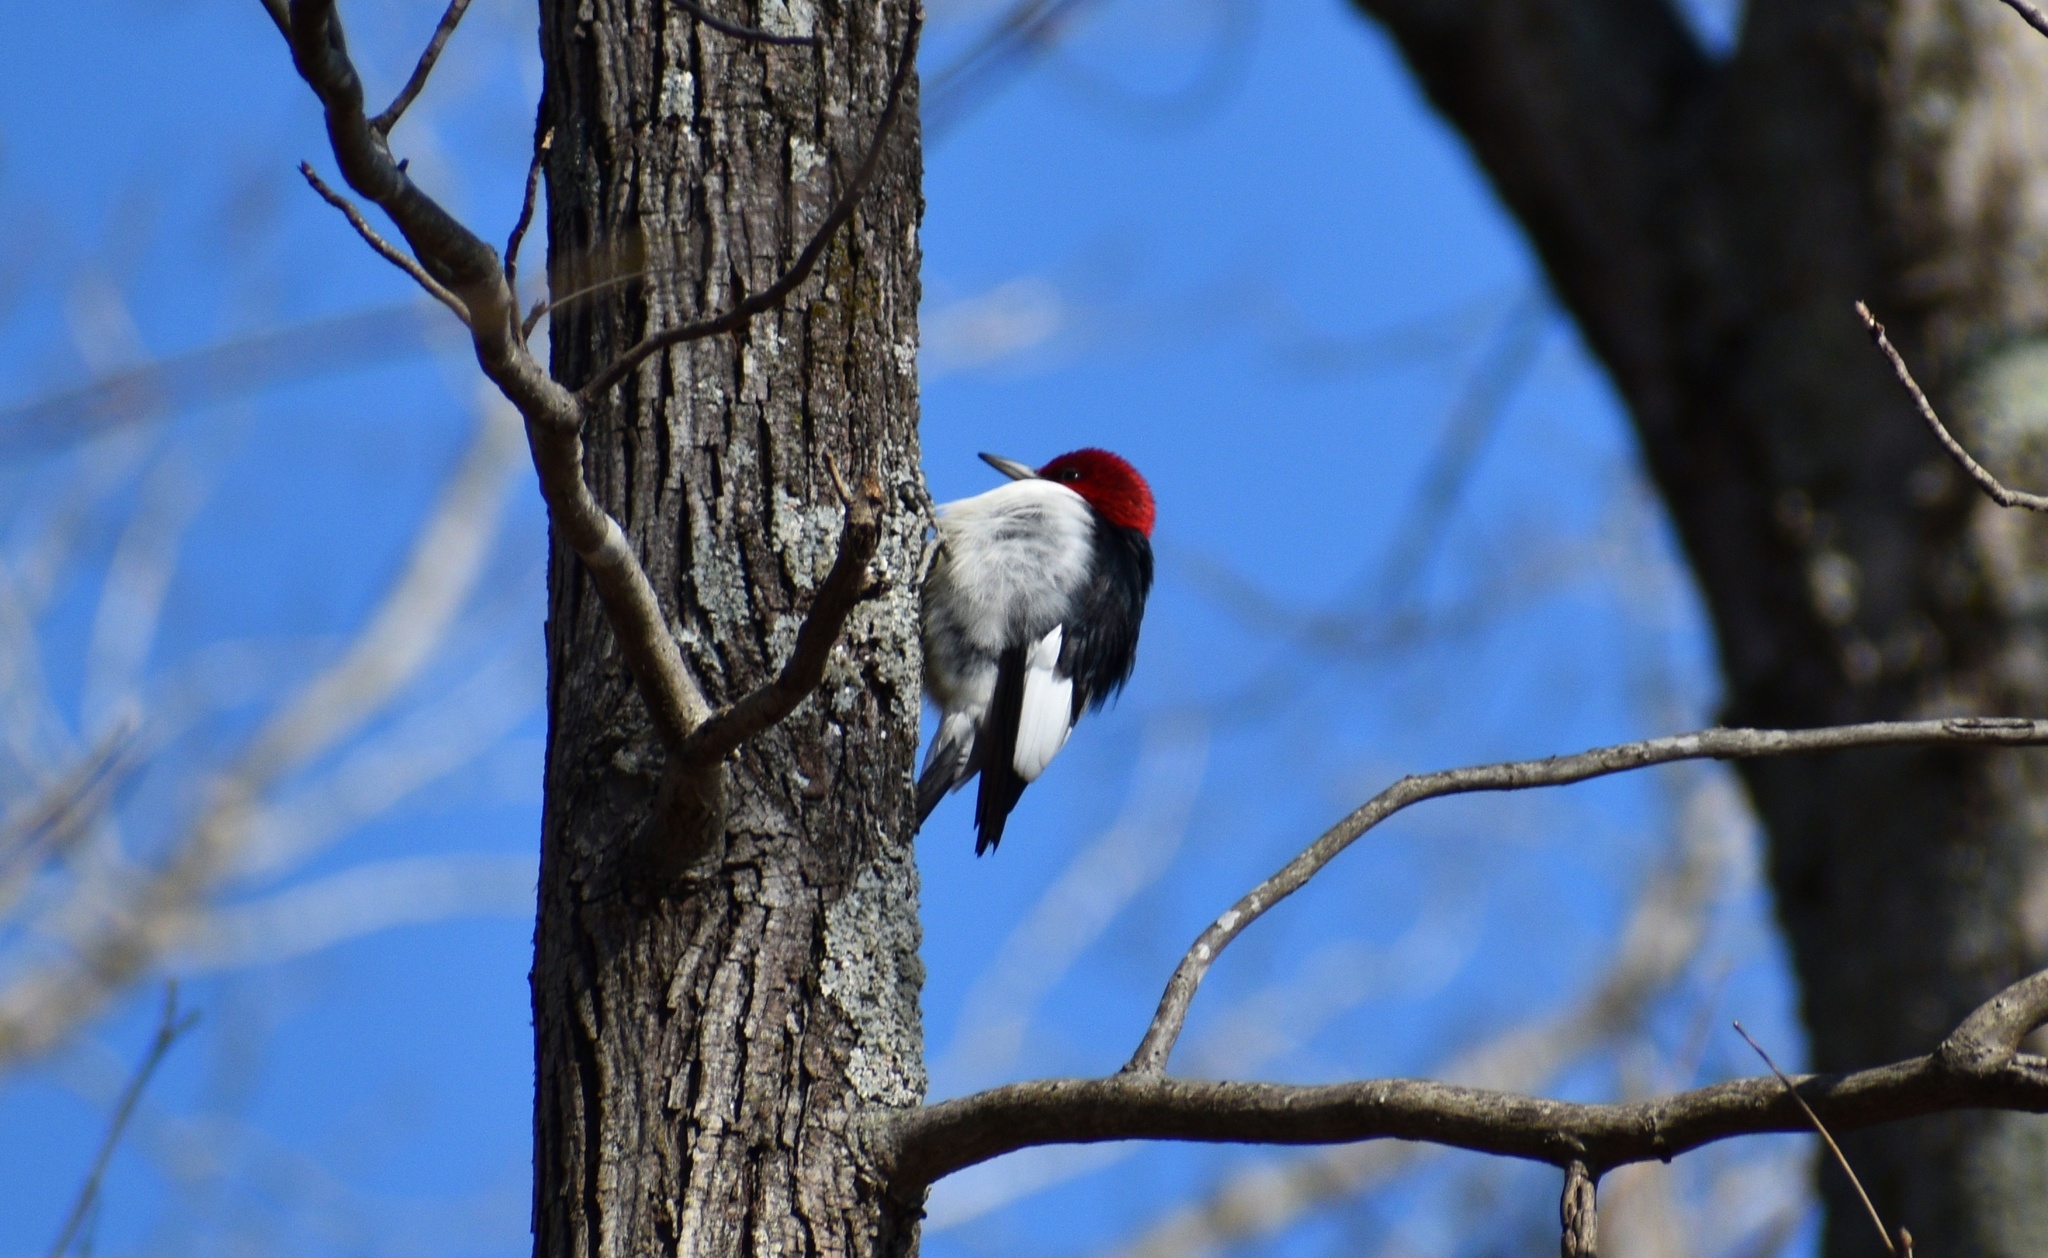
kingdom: Animalia
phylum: Chordata
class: Aves
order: Piciformes
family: Picidae
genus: Melanerpes
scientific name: Melanerpes erythrocephalus
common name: Red-headed woodpecker
